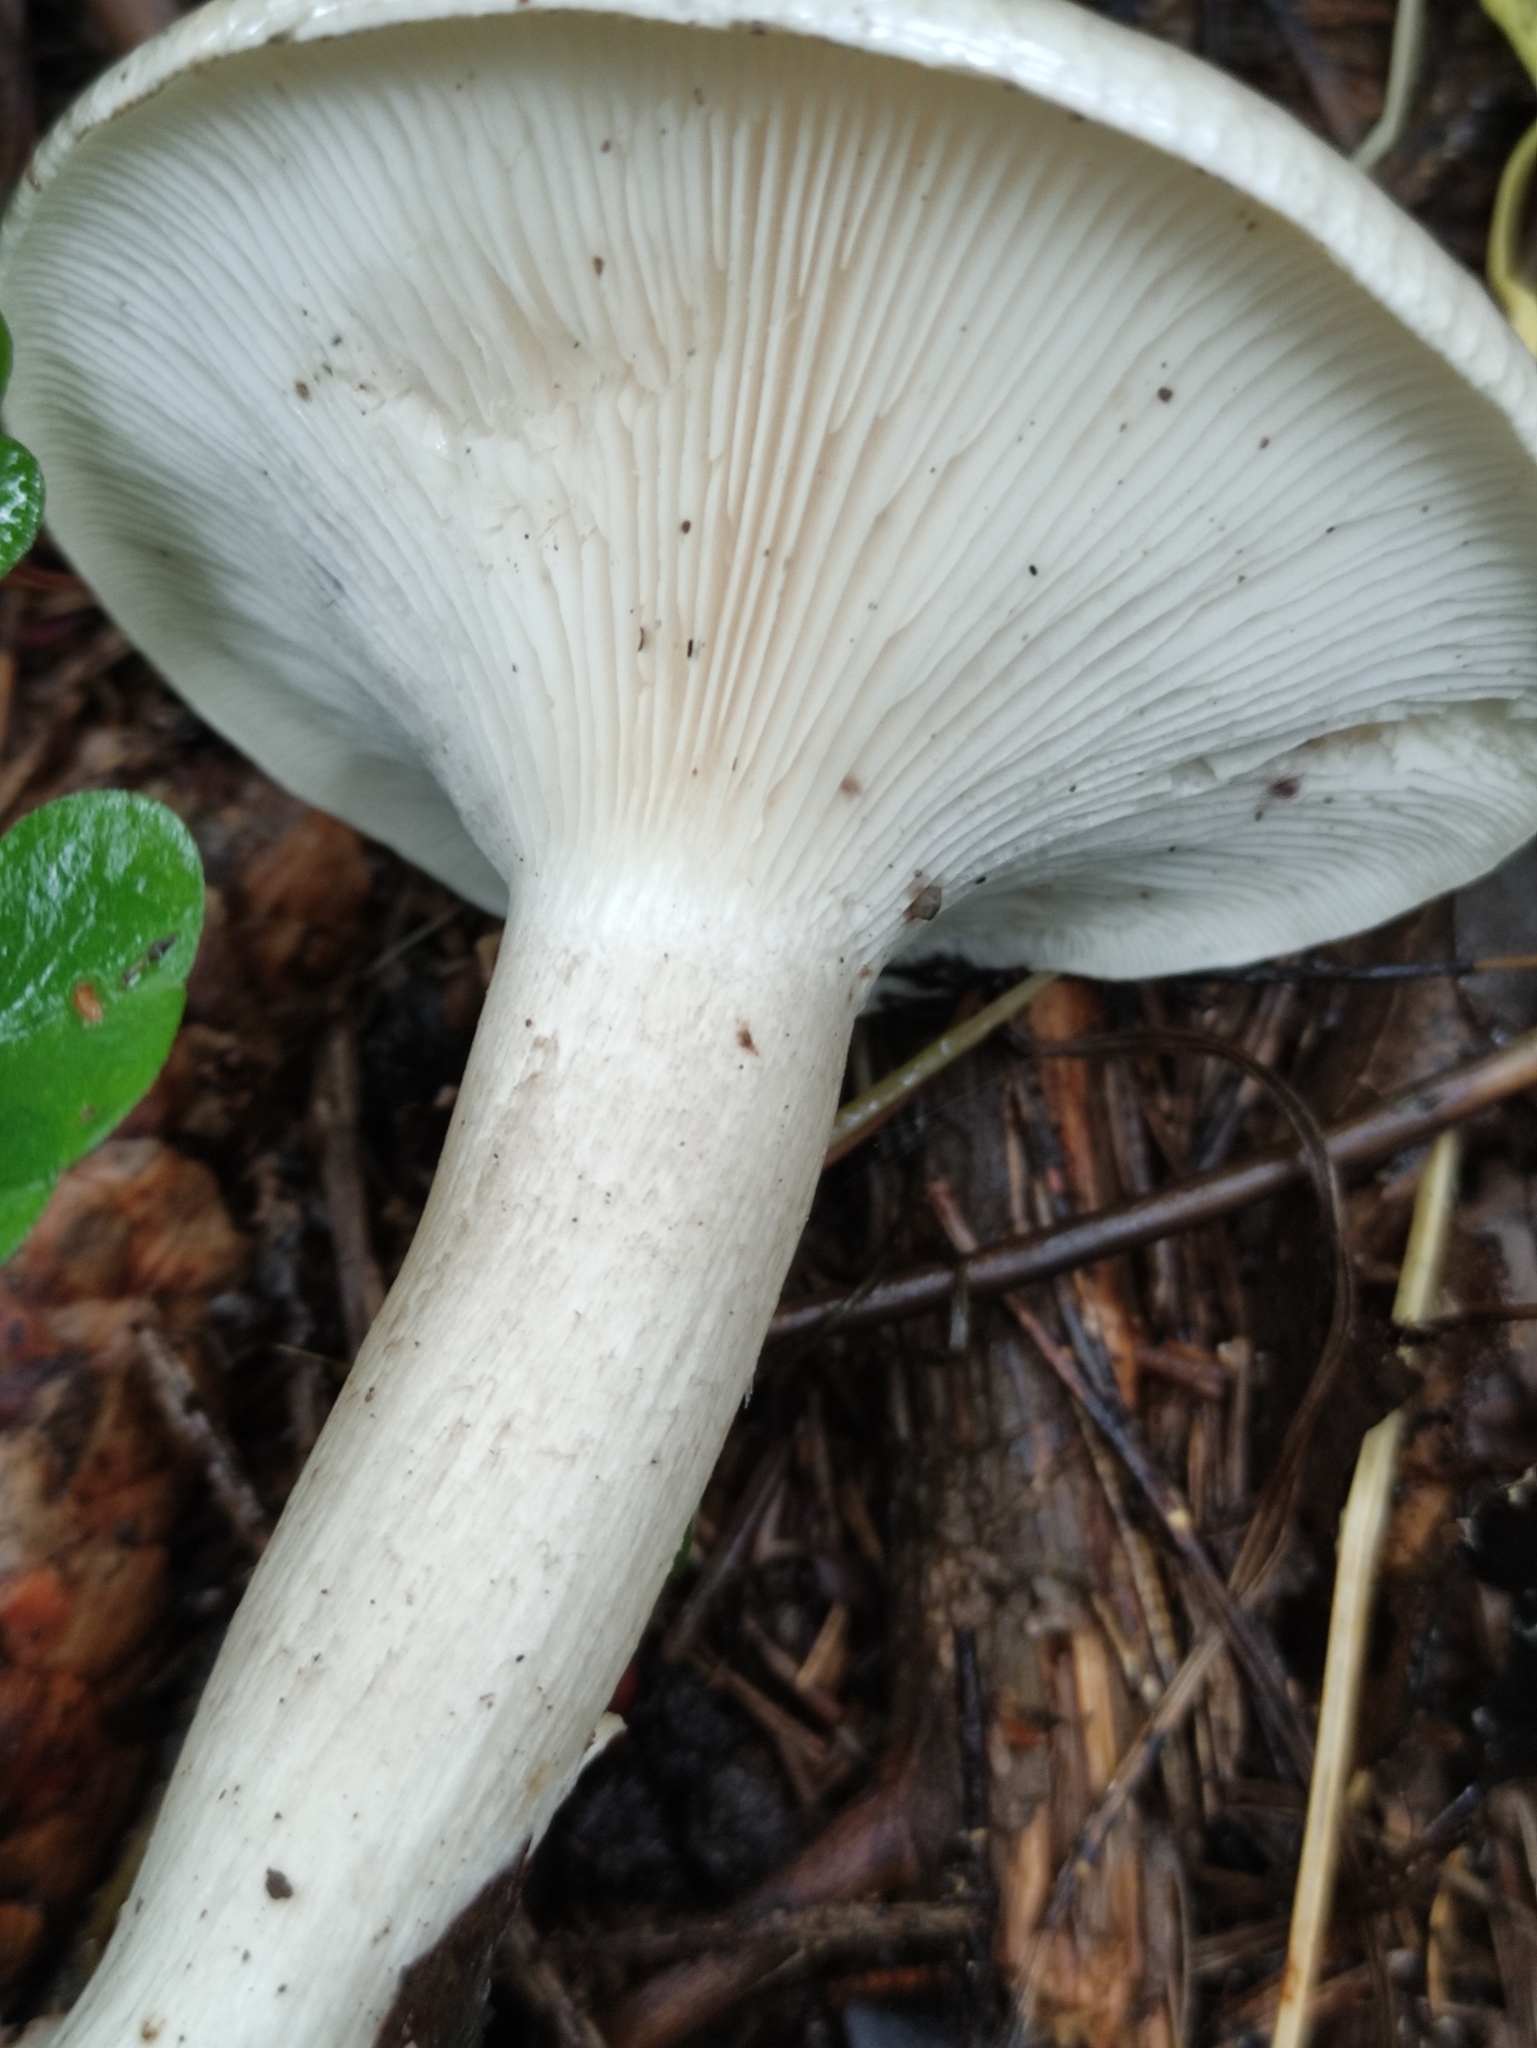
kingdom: Fungi
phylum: Basidiomycota
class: Agaricomycetes
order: Agaricales
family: Tricholomataceae
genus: Clitocybe
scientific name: Clitocybe nebularis
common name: Clouded agaric
